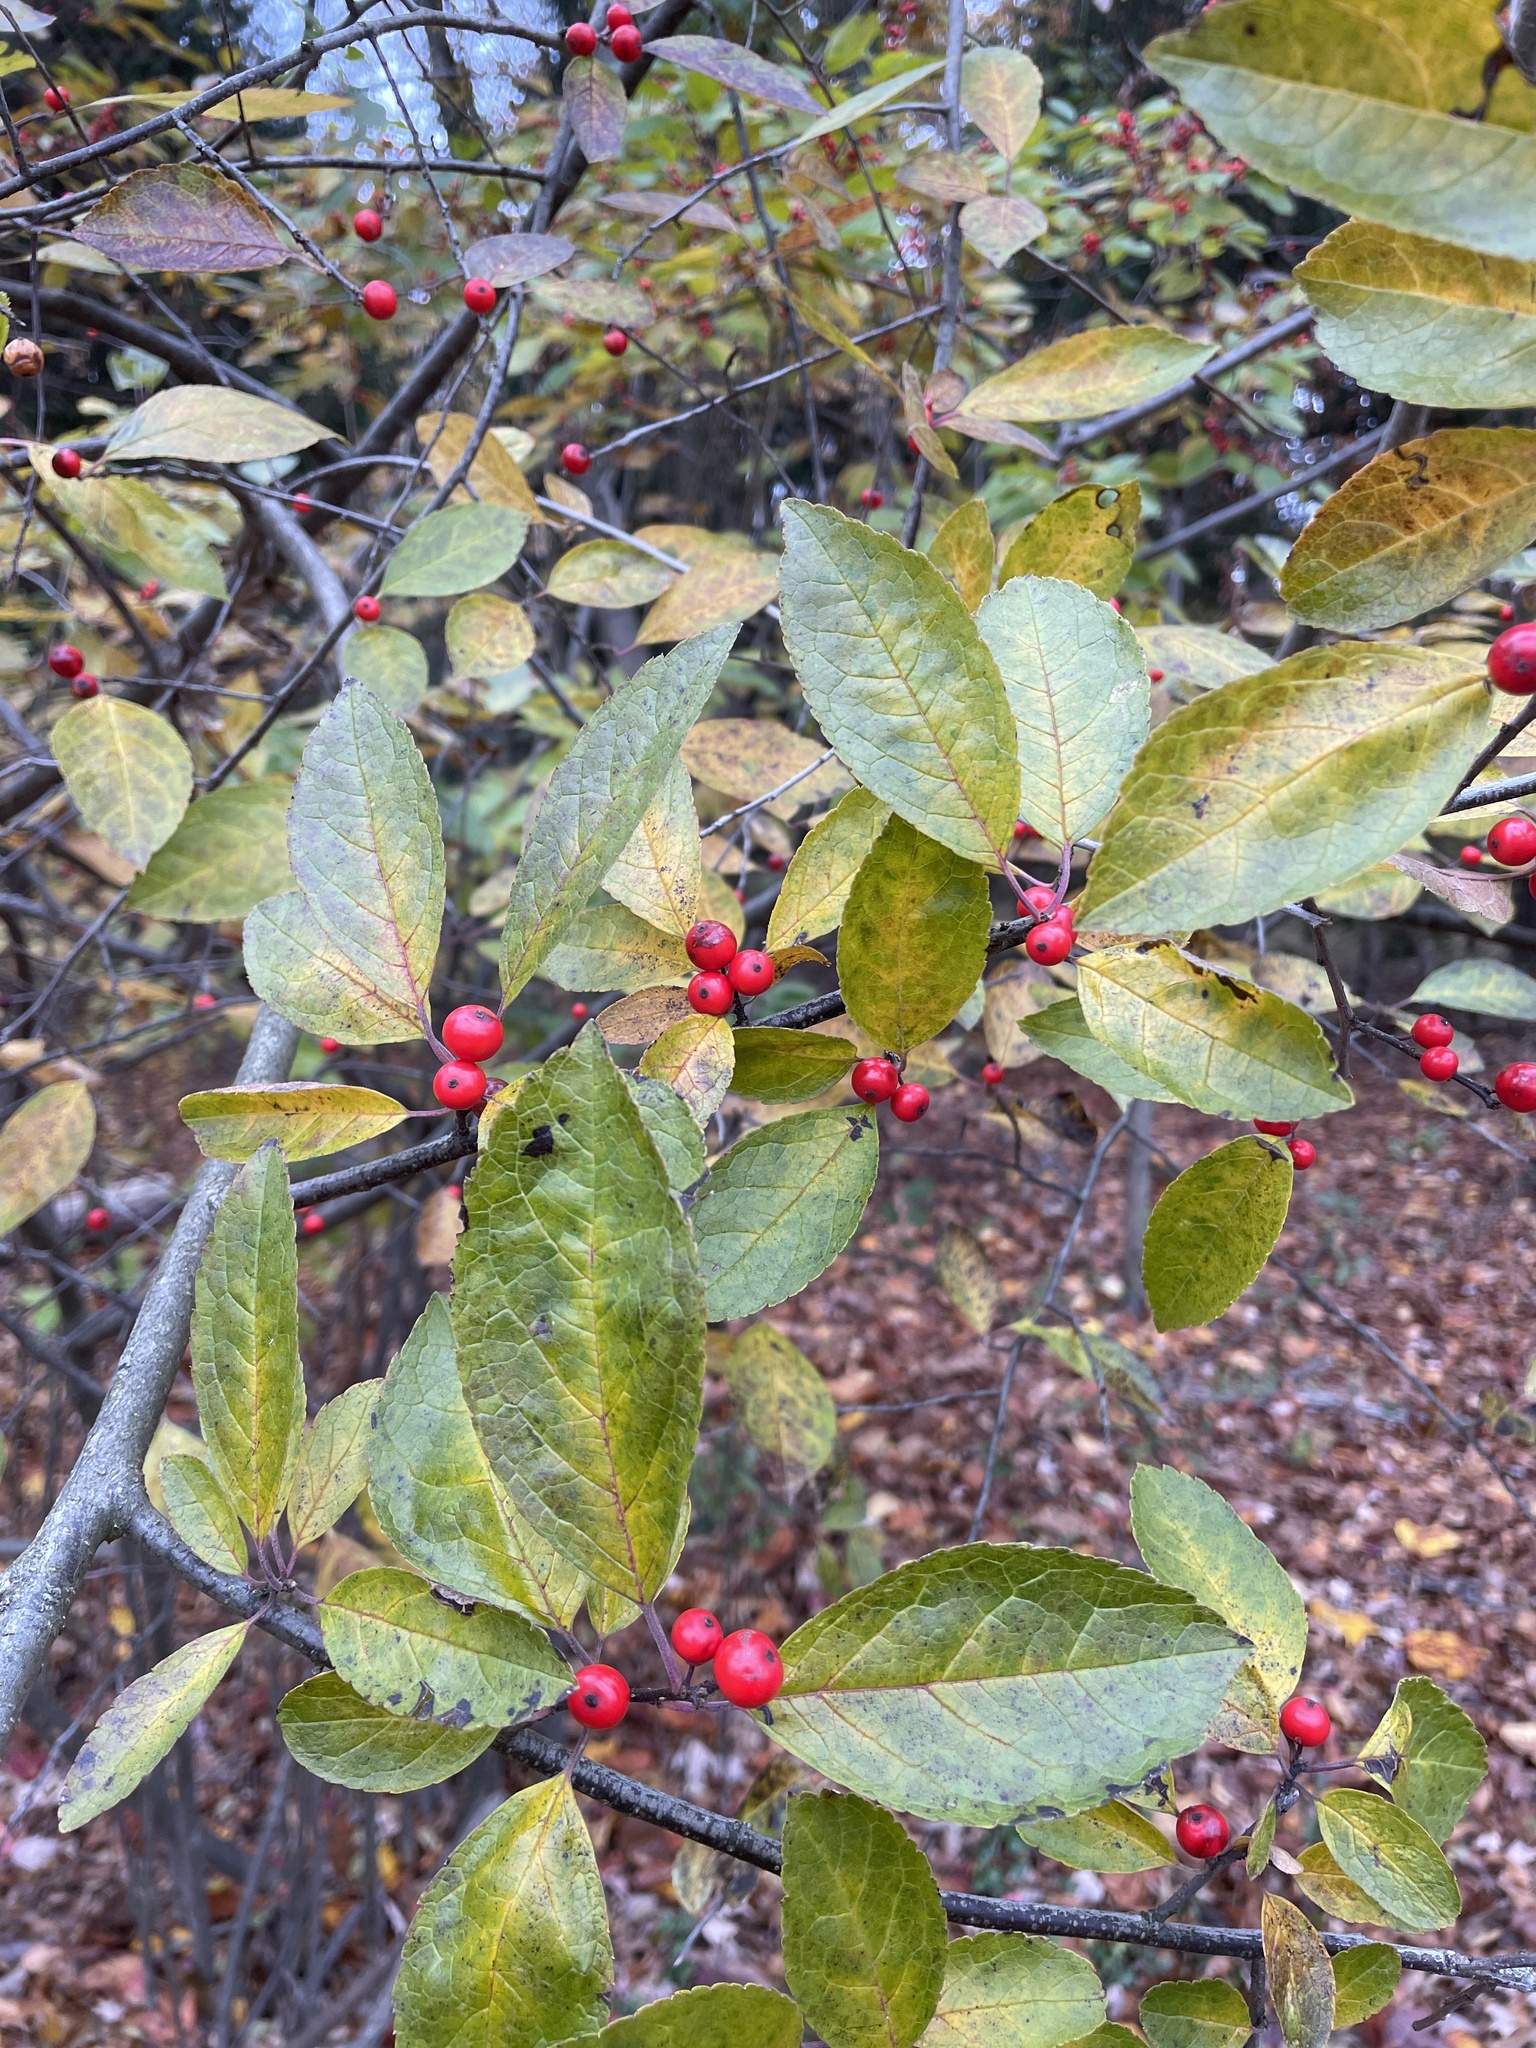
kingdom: Plantae
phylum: Tracheophyta
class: Magnoliopsida
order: Aquifoliales
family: Aquifoliaceae
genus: Ilex
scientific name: Ilex verticillata
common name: Virginia winterberry
